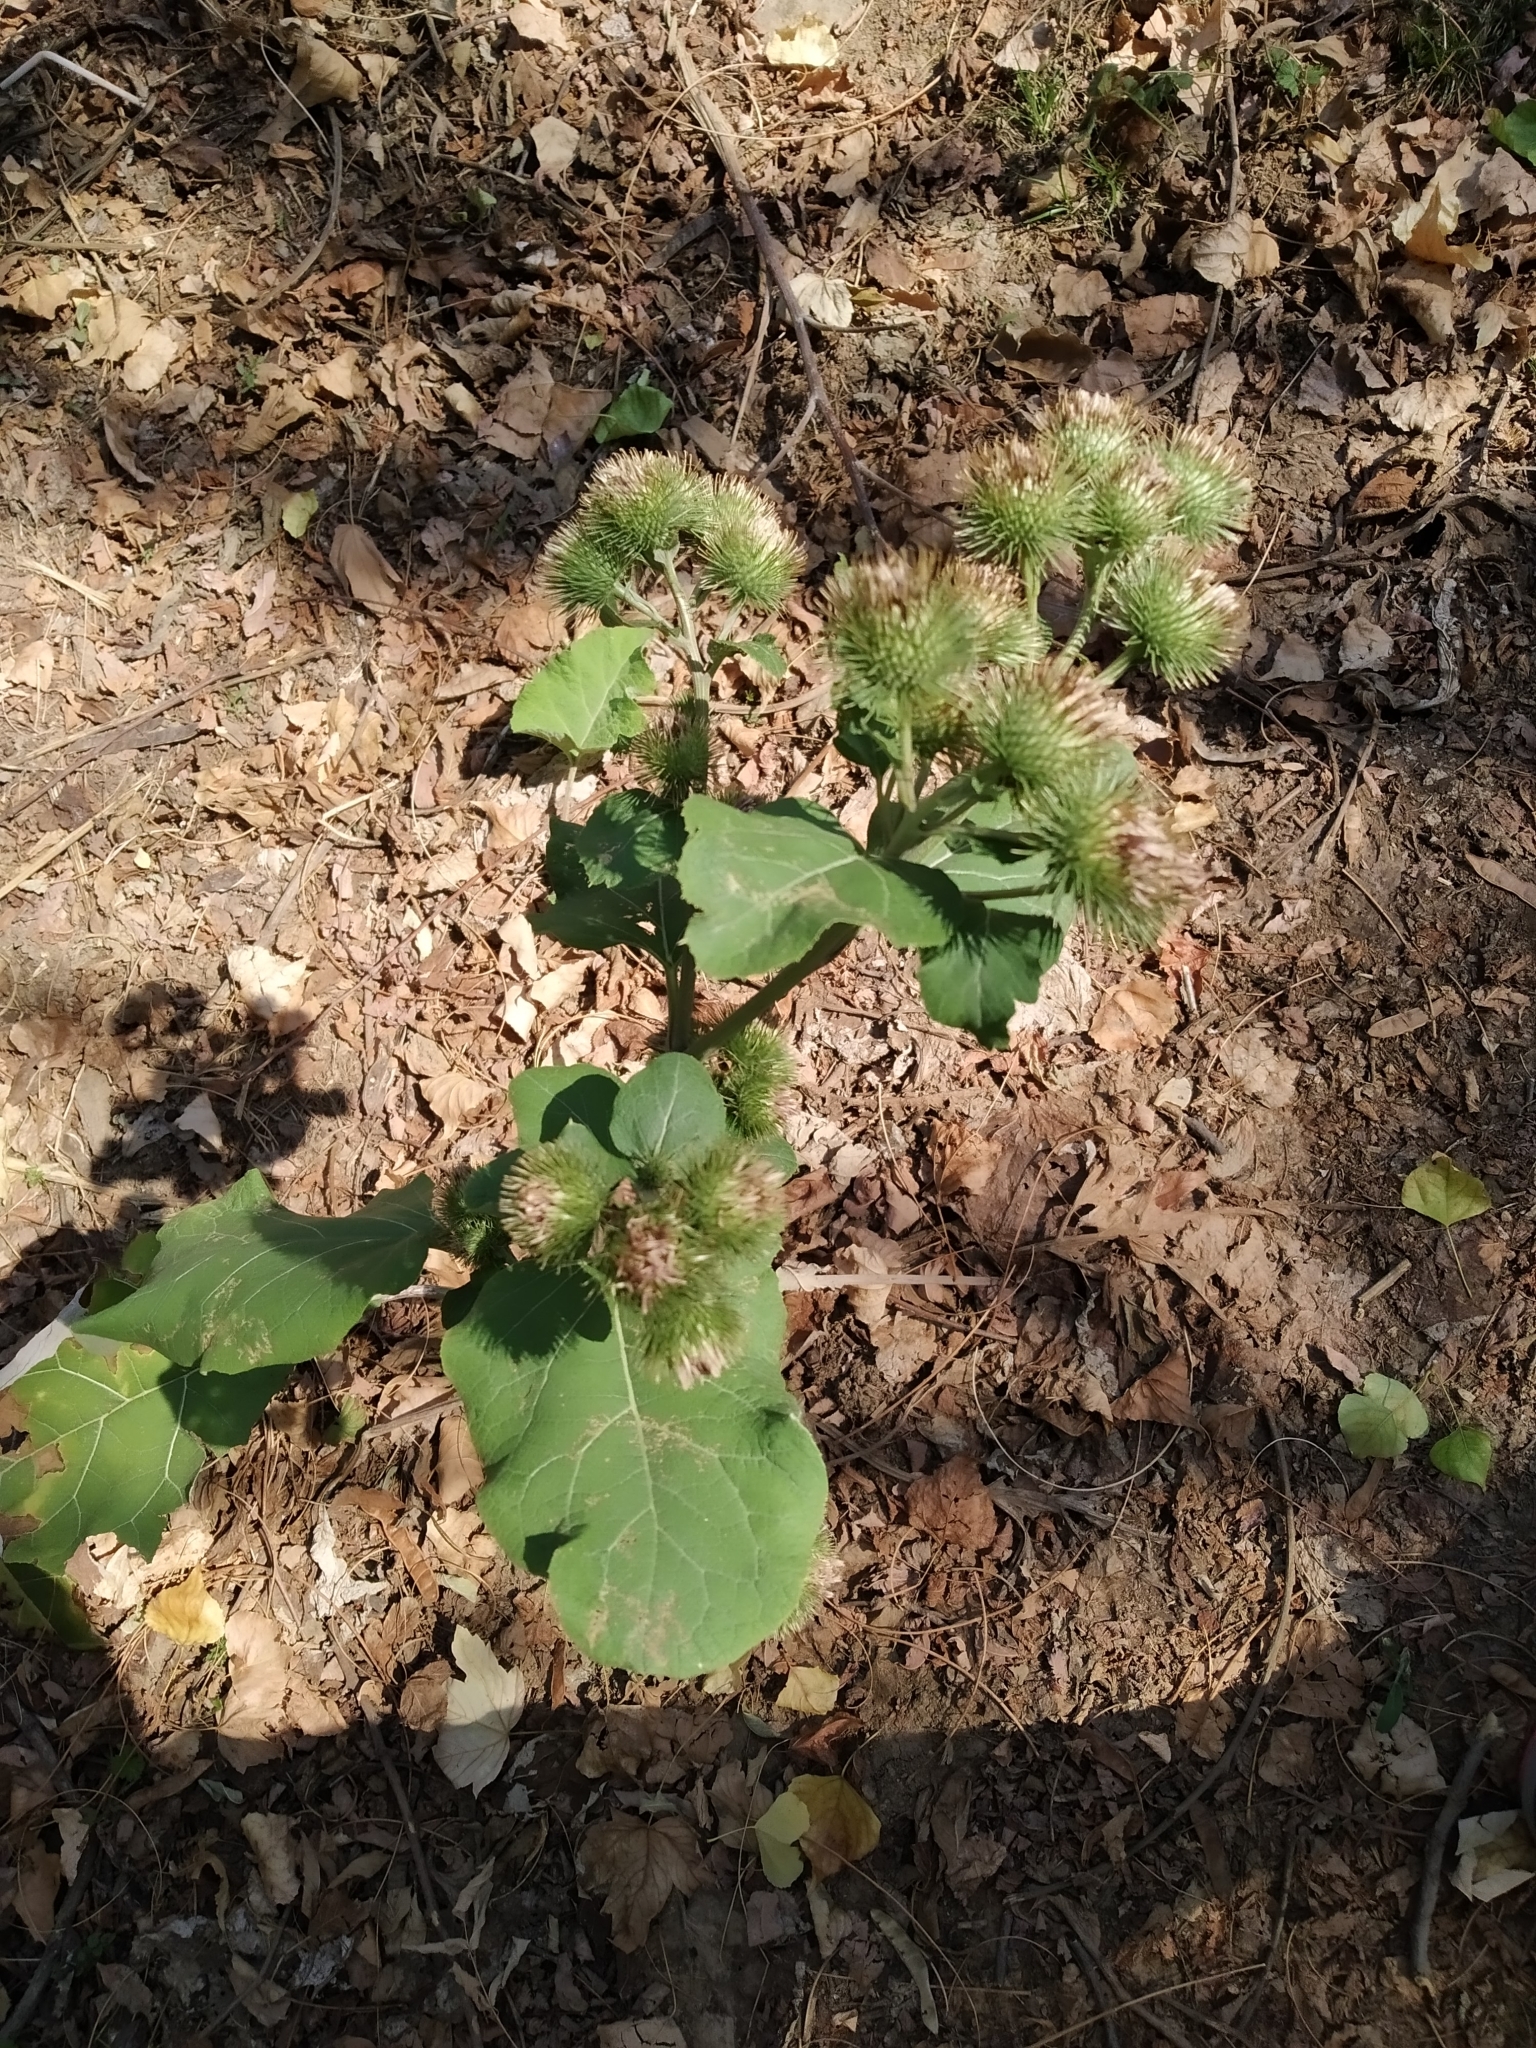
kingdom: Plantae
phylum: Tracheophyta
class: Magnoliopsida
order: Asterales
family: Asteraceae
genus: Arctium
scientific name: Arctium lappa
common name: Greater burdock
